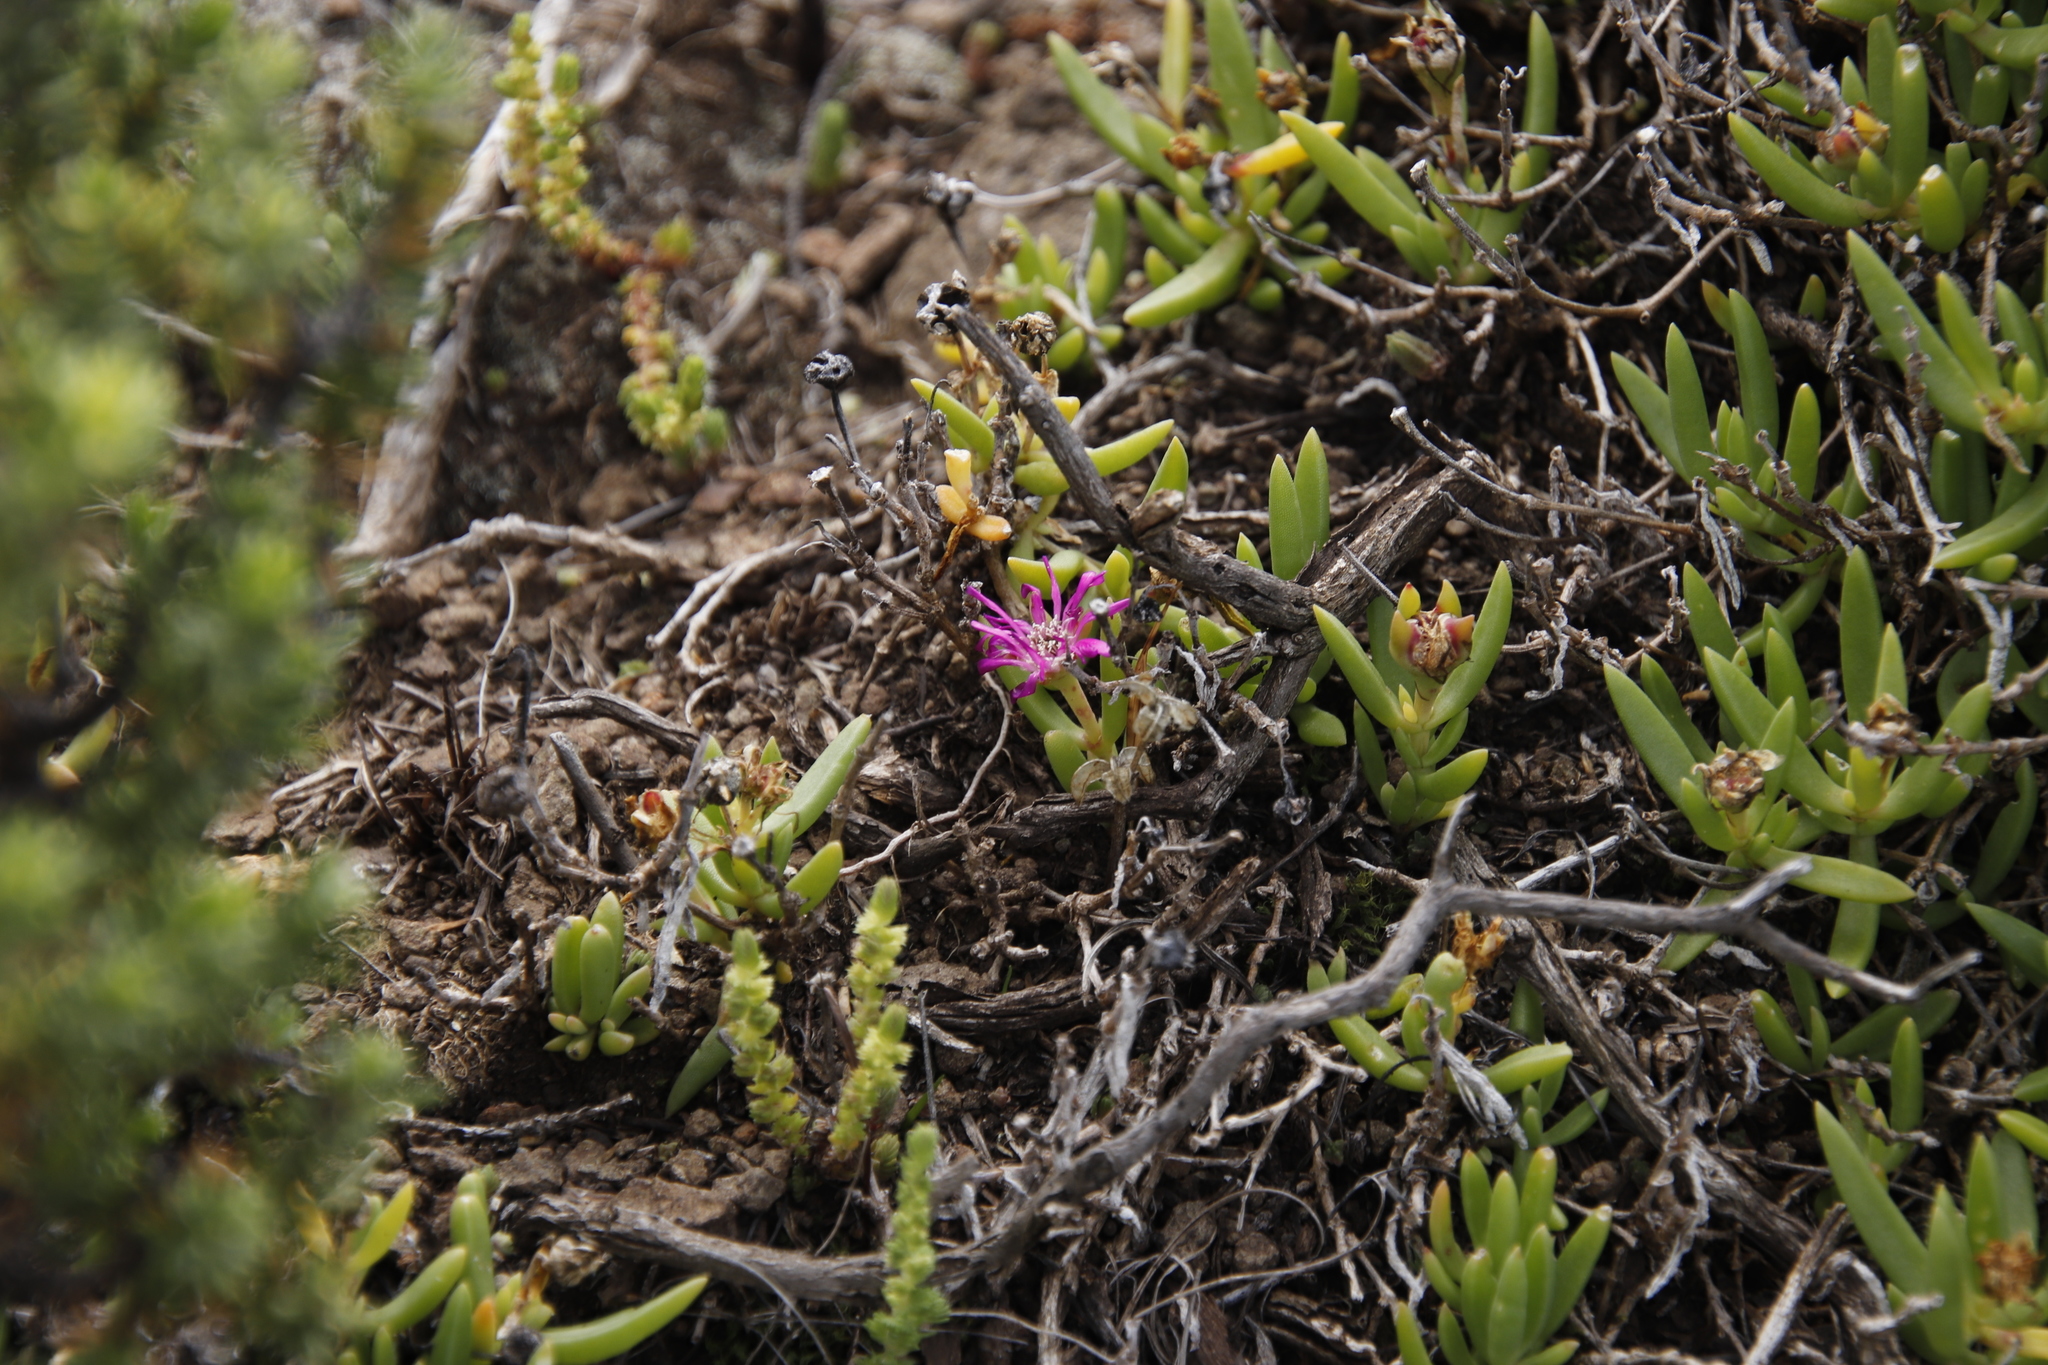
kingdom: Plantae
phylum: Tracheophyta
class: Magnoliopsida
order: Caryophyllales
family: Aizoaceae
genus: Delosperma
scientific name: Delosperma lavisiae
